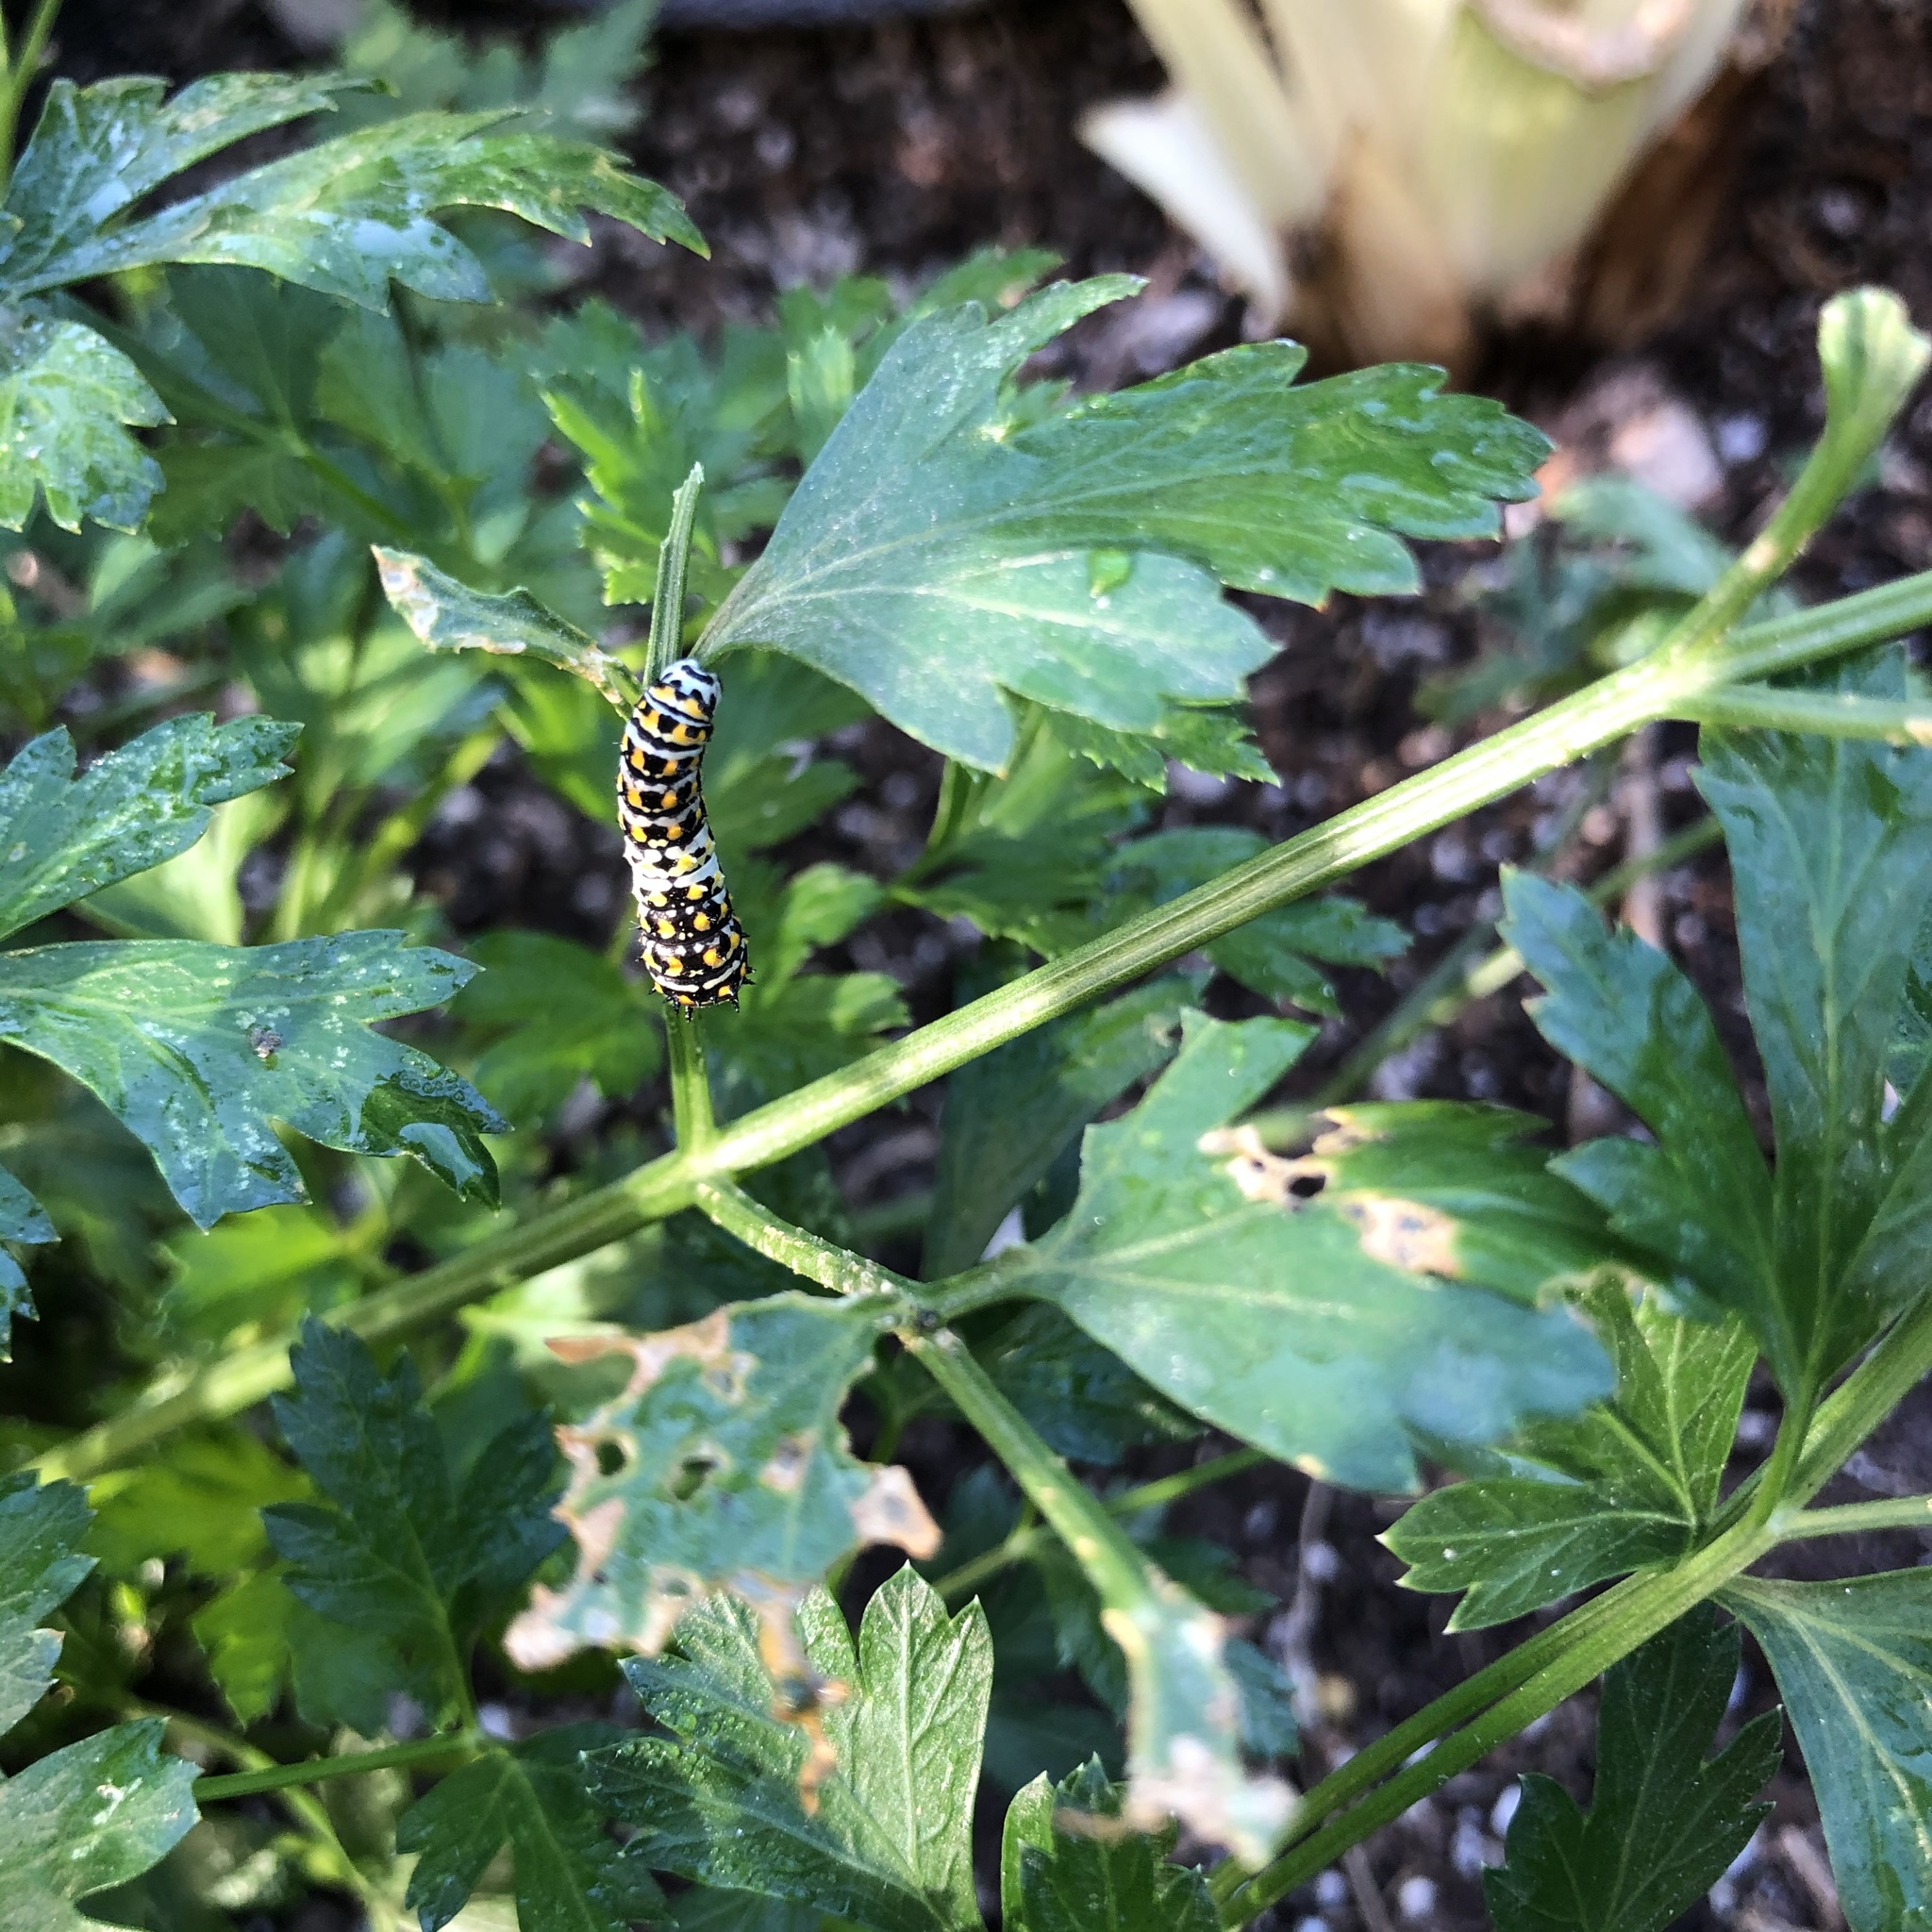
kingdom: Animalia
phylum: Arthropoda
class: Insecta
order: Lepidoptera
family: Papilionidae
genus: Papilio
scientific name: Papilio zelicaon
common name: Anise swallowtail
